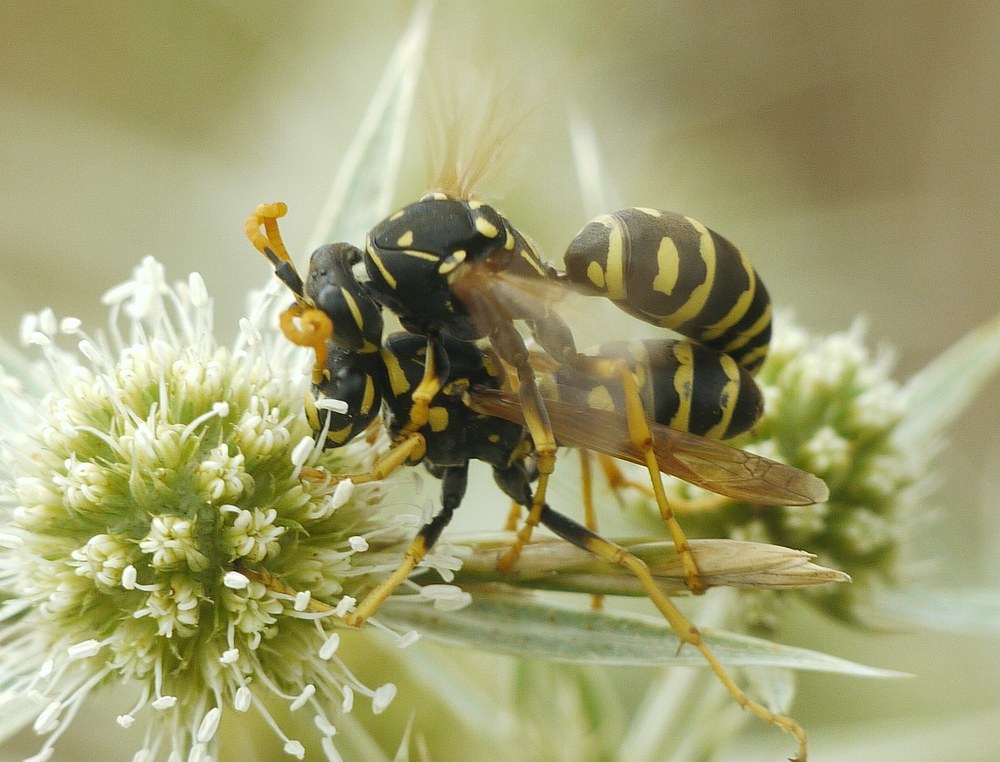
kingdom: Animalia
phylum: Arthropoda
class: Insecta
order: Hymenoptera
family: Eumenidae
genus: Polistes
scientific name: Polistes dominula
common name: Paper wasp
